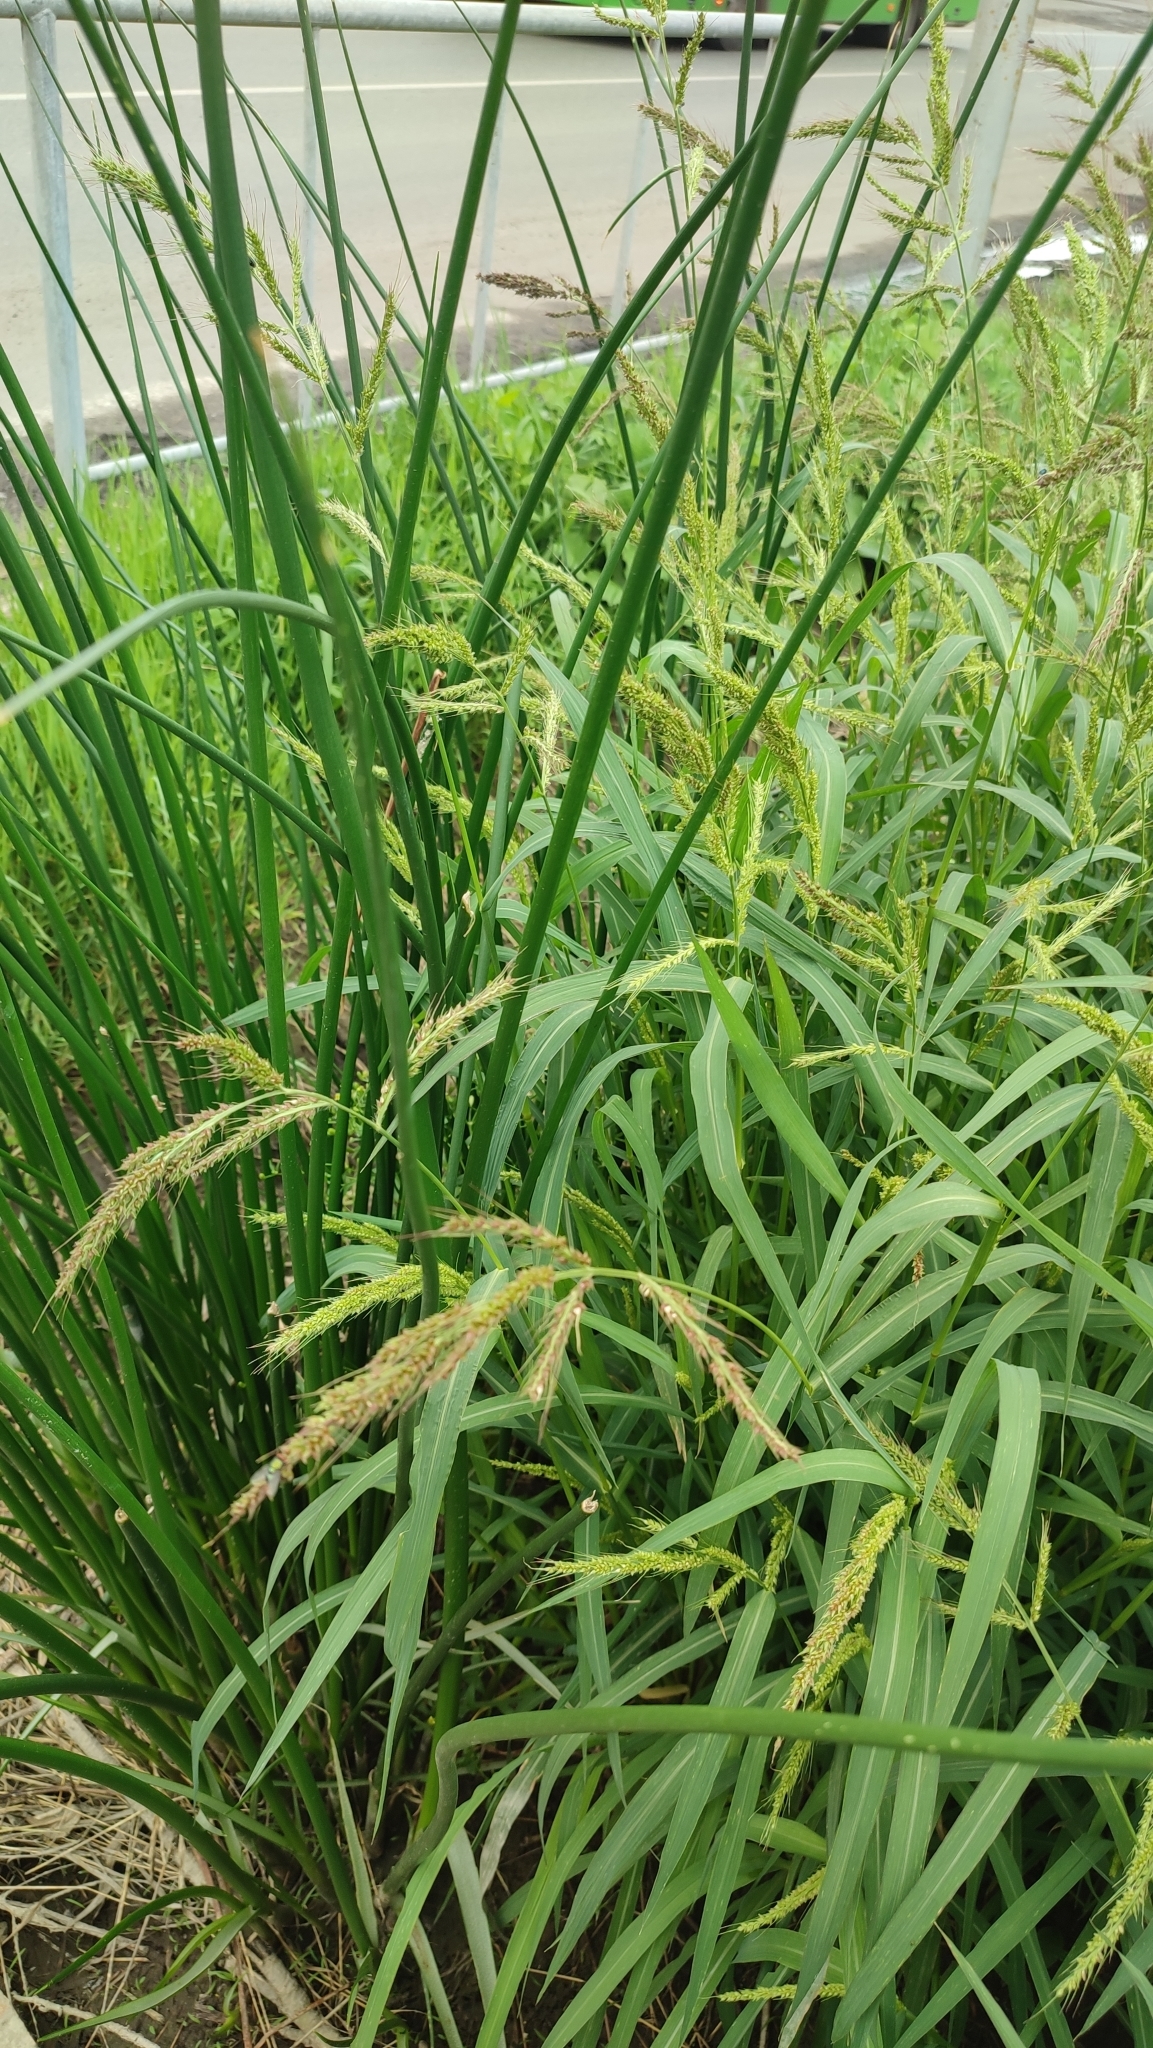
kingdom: Plantae
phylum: Tracheophyta
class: Liliopsida
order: Poales
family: Poaceae
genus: Echinochloa
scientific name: Echinochloa crus-galli
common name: Cockspur
